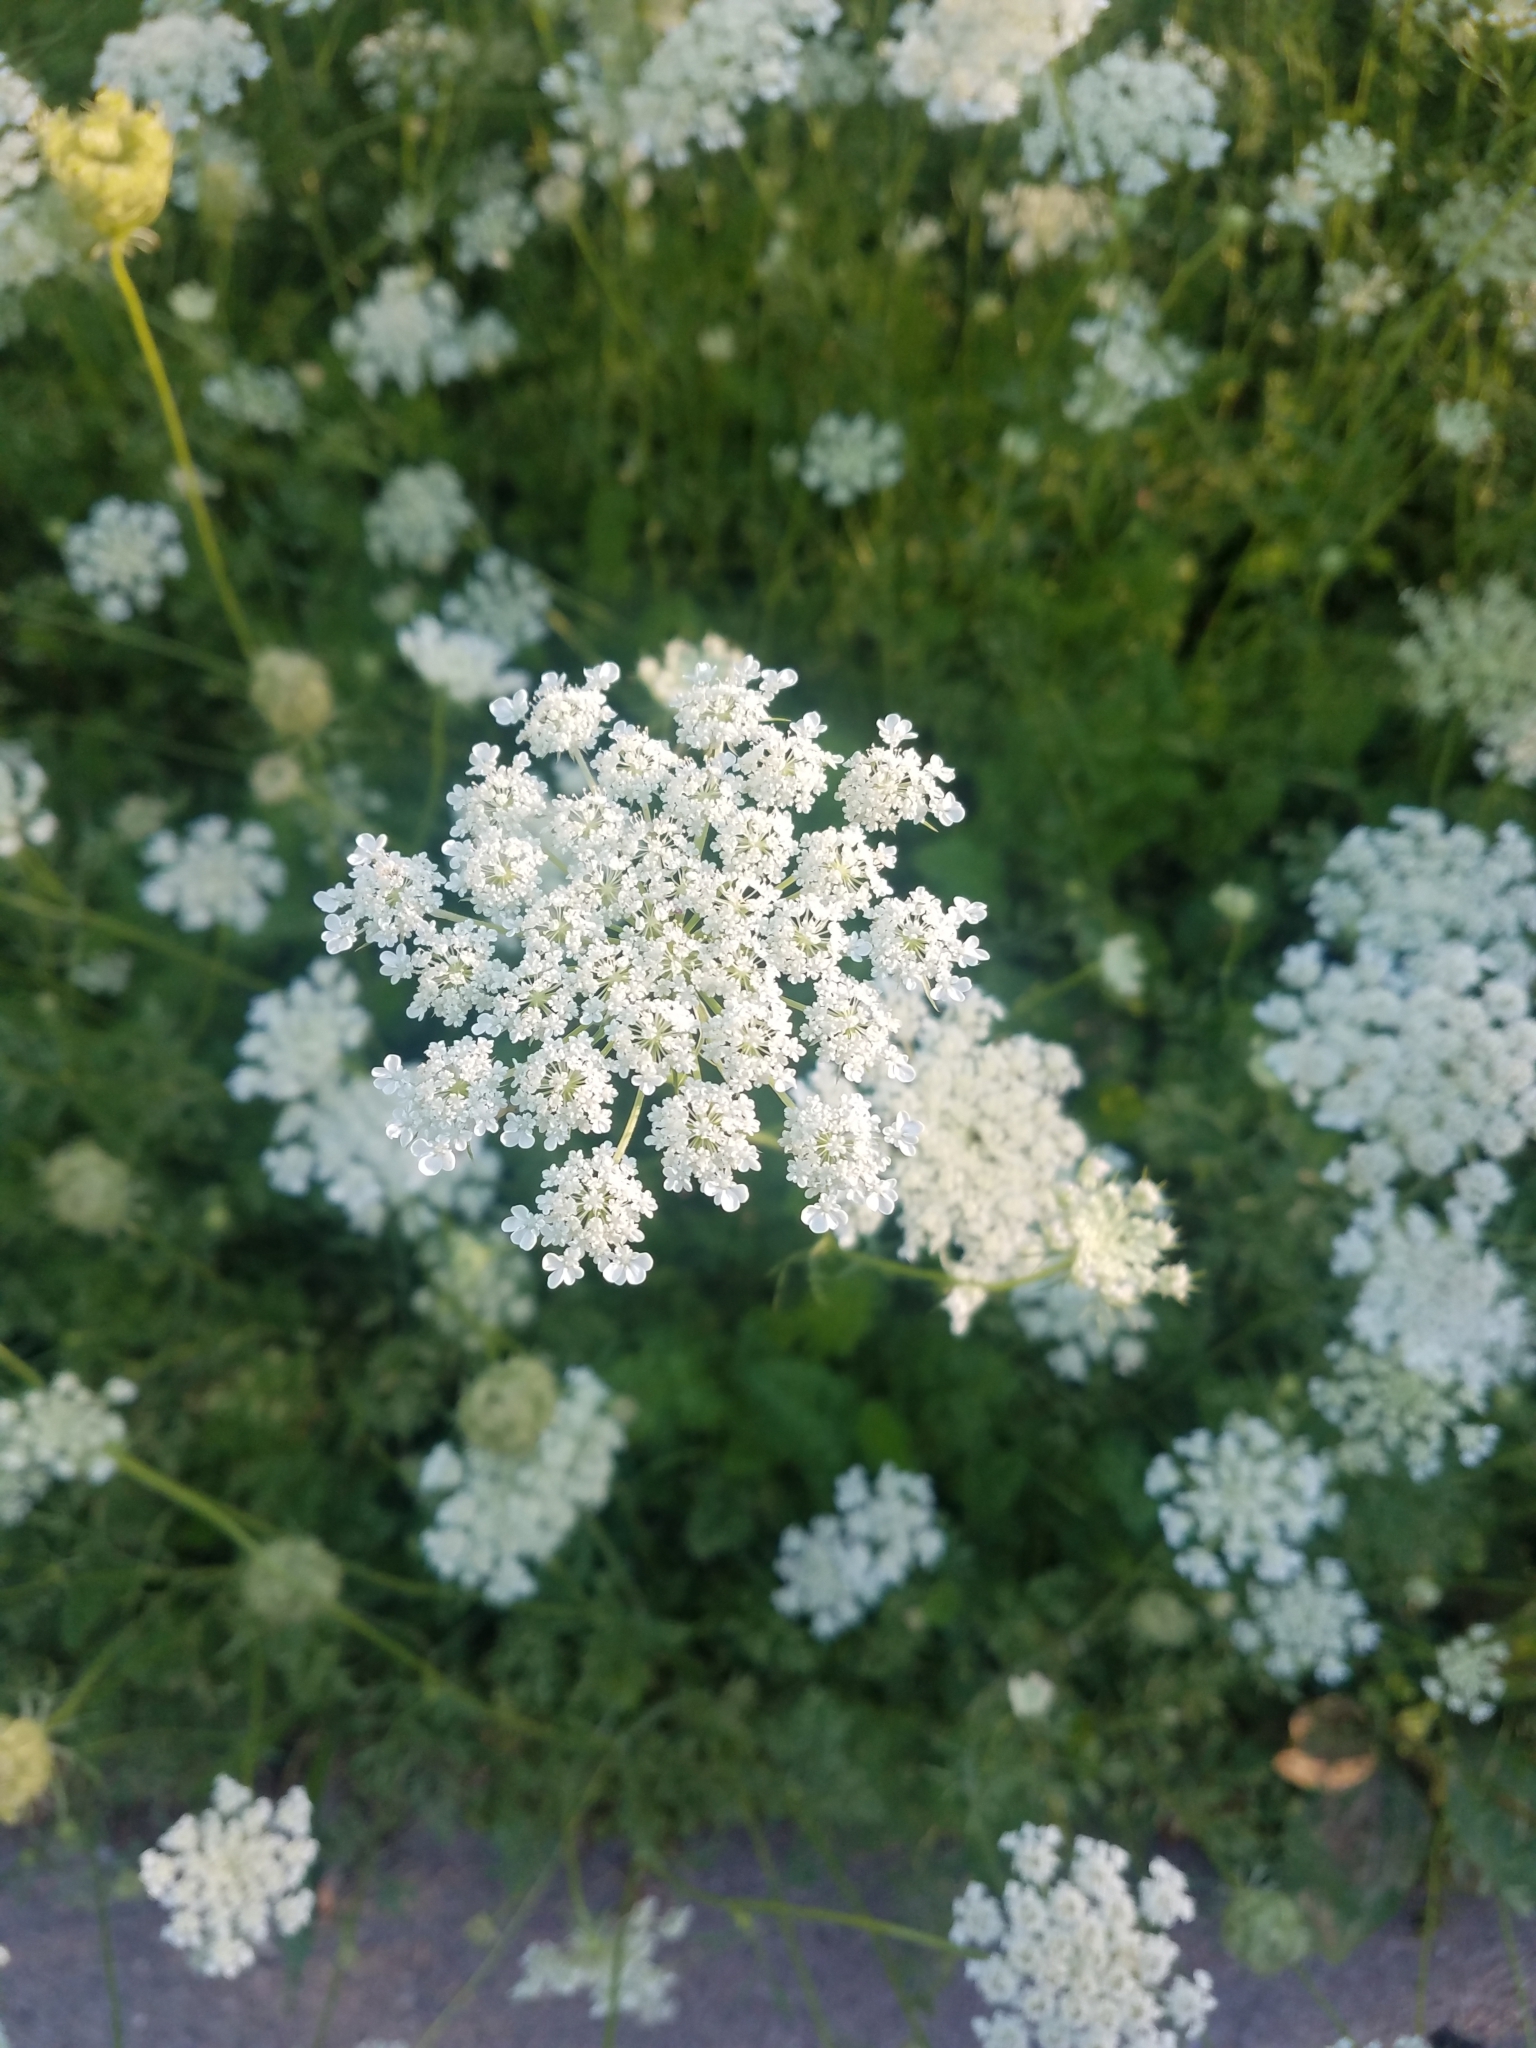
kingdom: Plantae
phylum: Tracheophyta
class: Magnoliopsida
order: Apiales
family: Apiaceae
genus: Daucus
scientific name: Daucus carota
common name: Wild carrot
